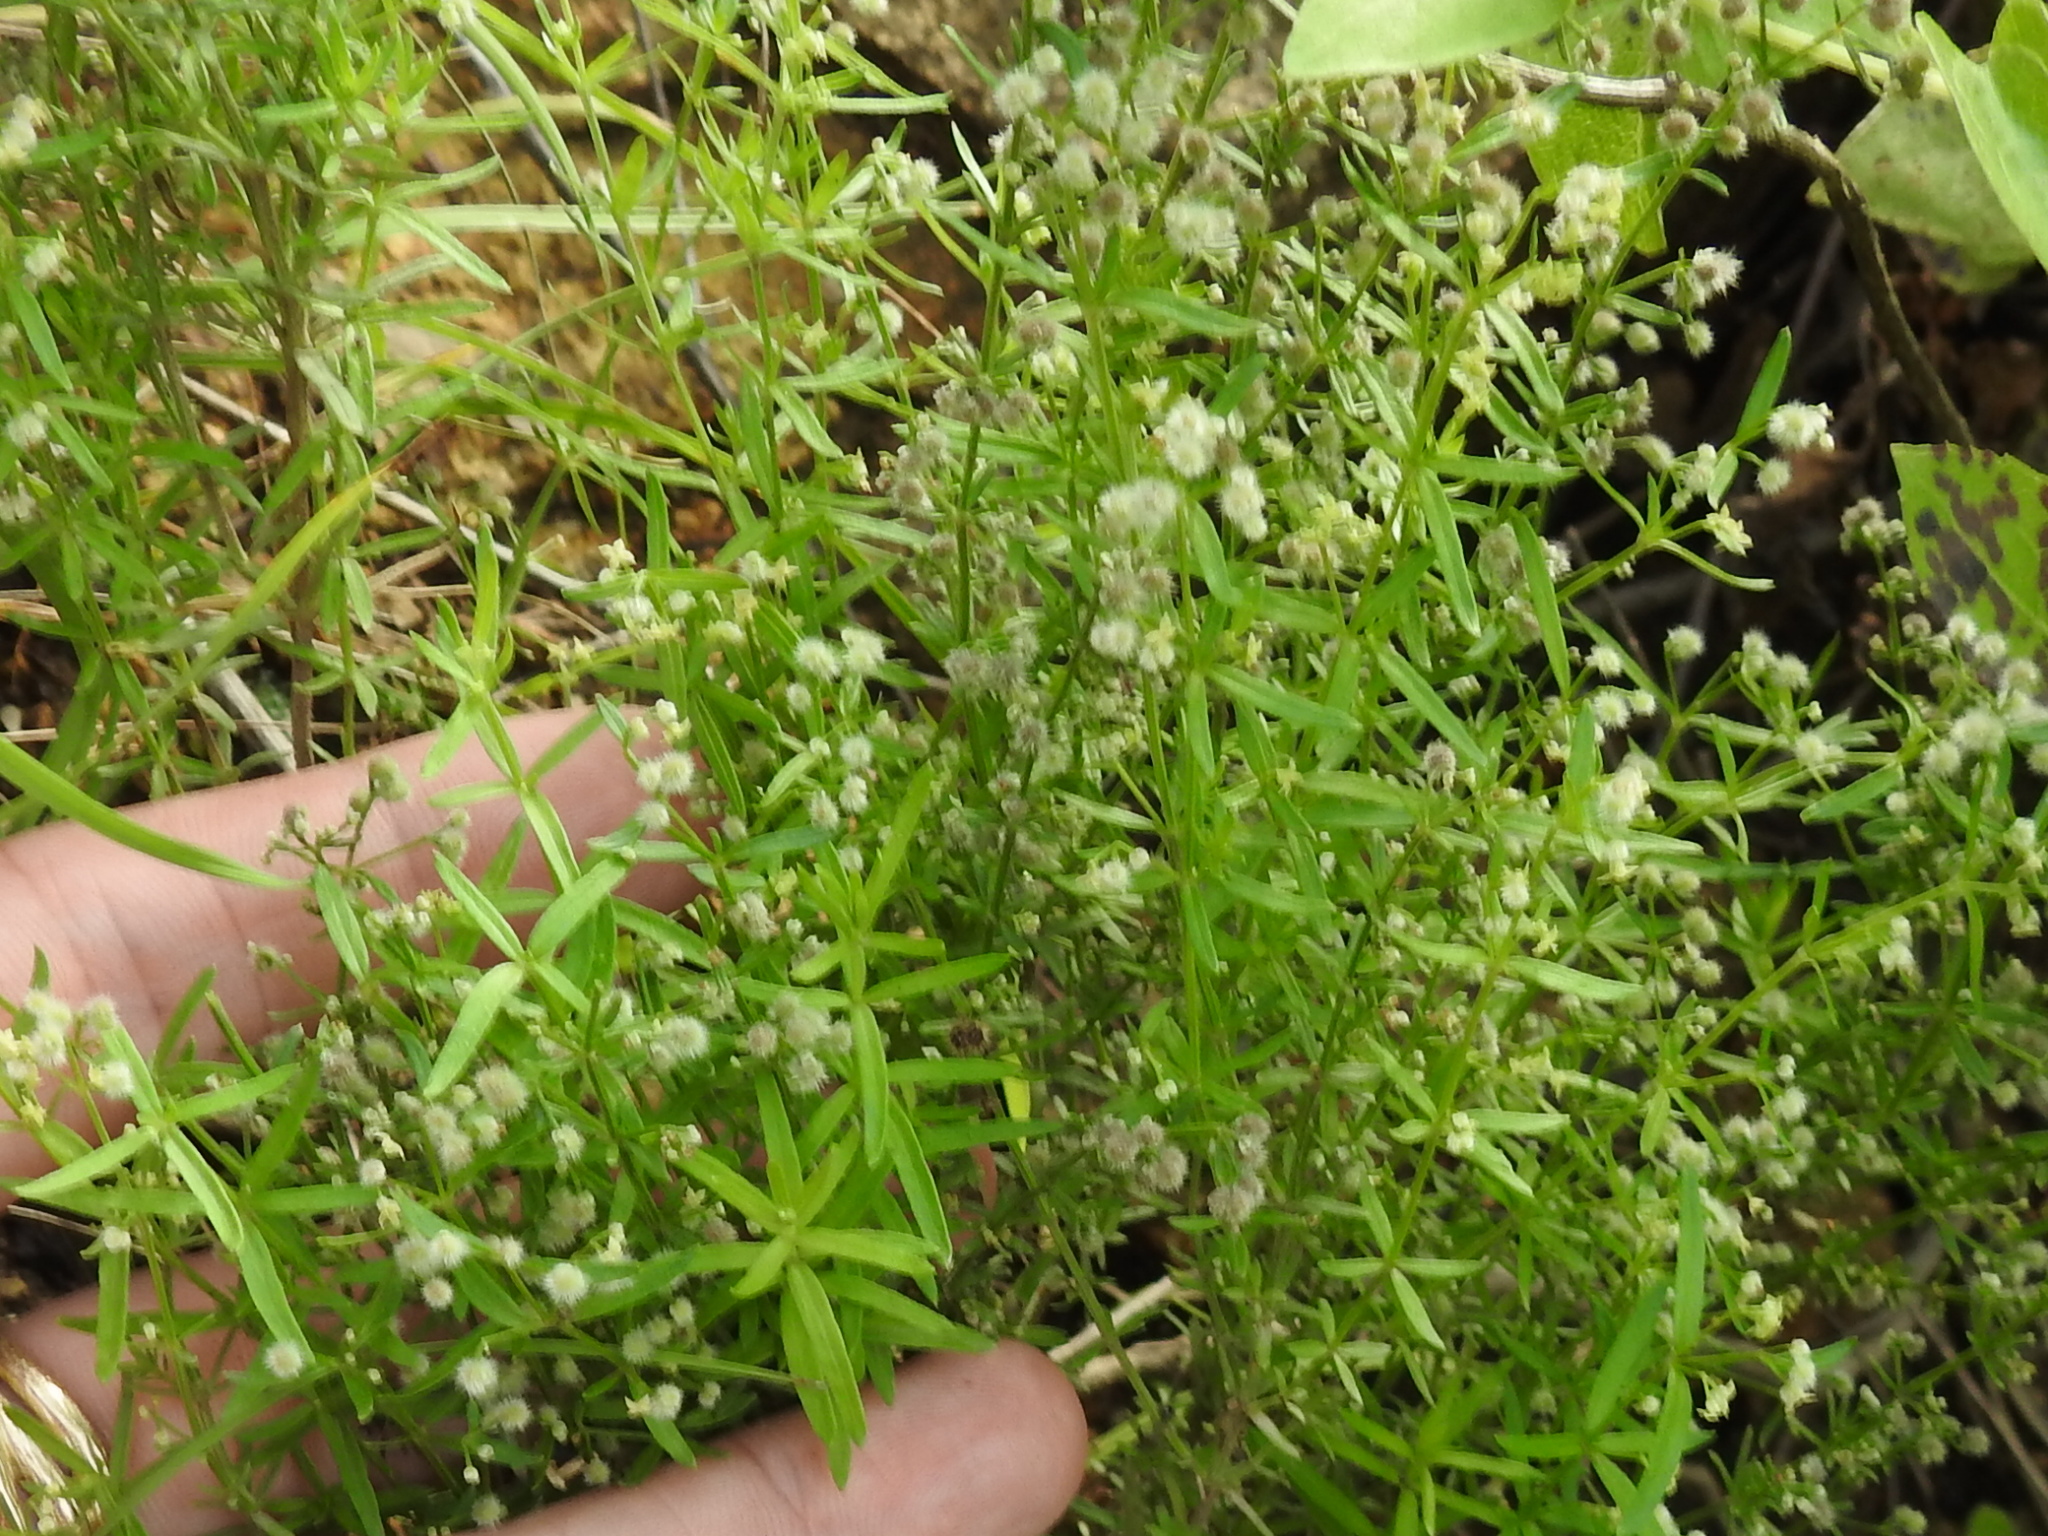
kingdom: Plantae
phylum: Tracheophyta
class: Magnoliopsida
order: Gentianales
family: Rubiaceae
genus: Galium
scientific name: Galium fendleri
